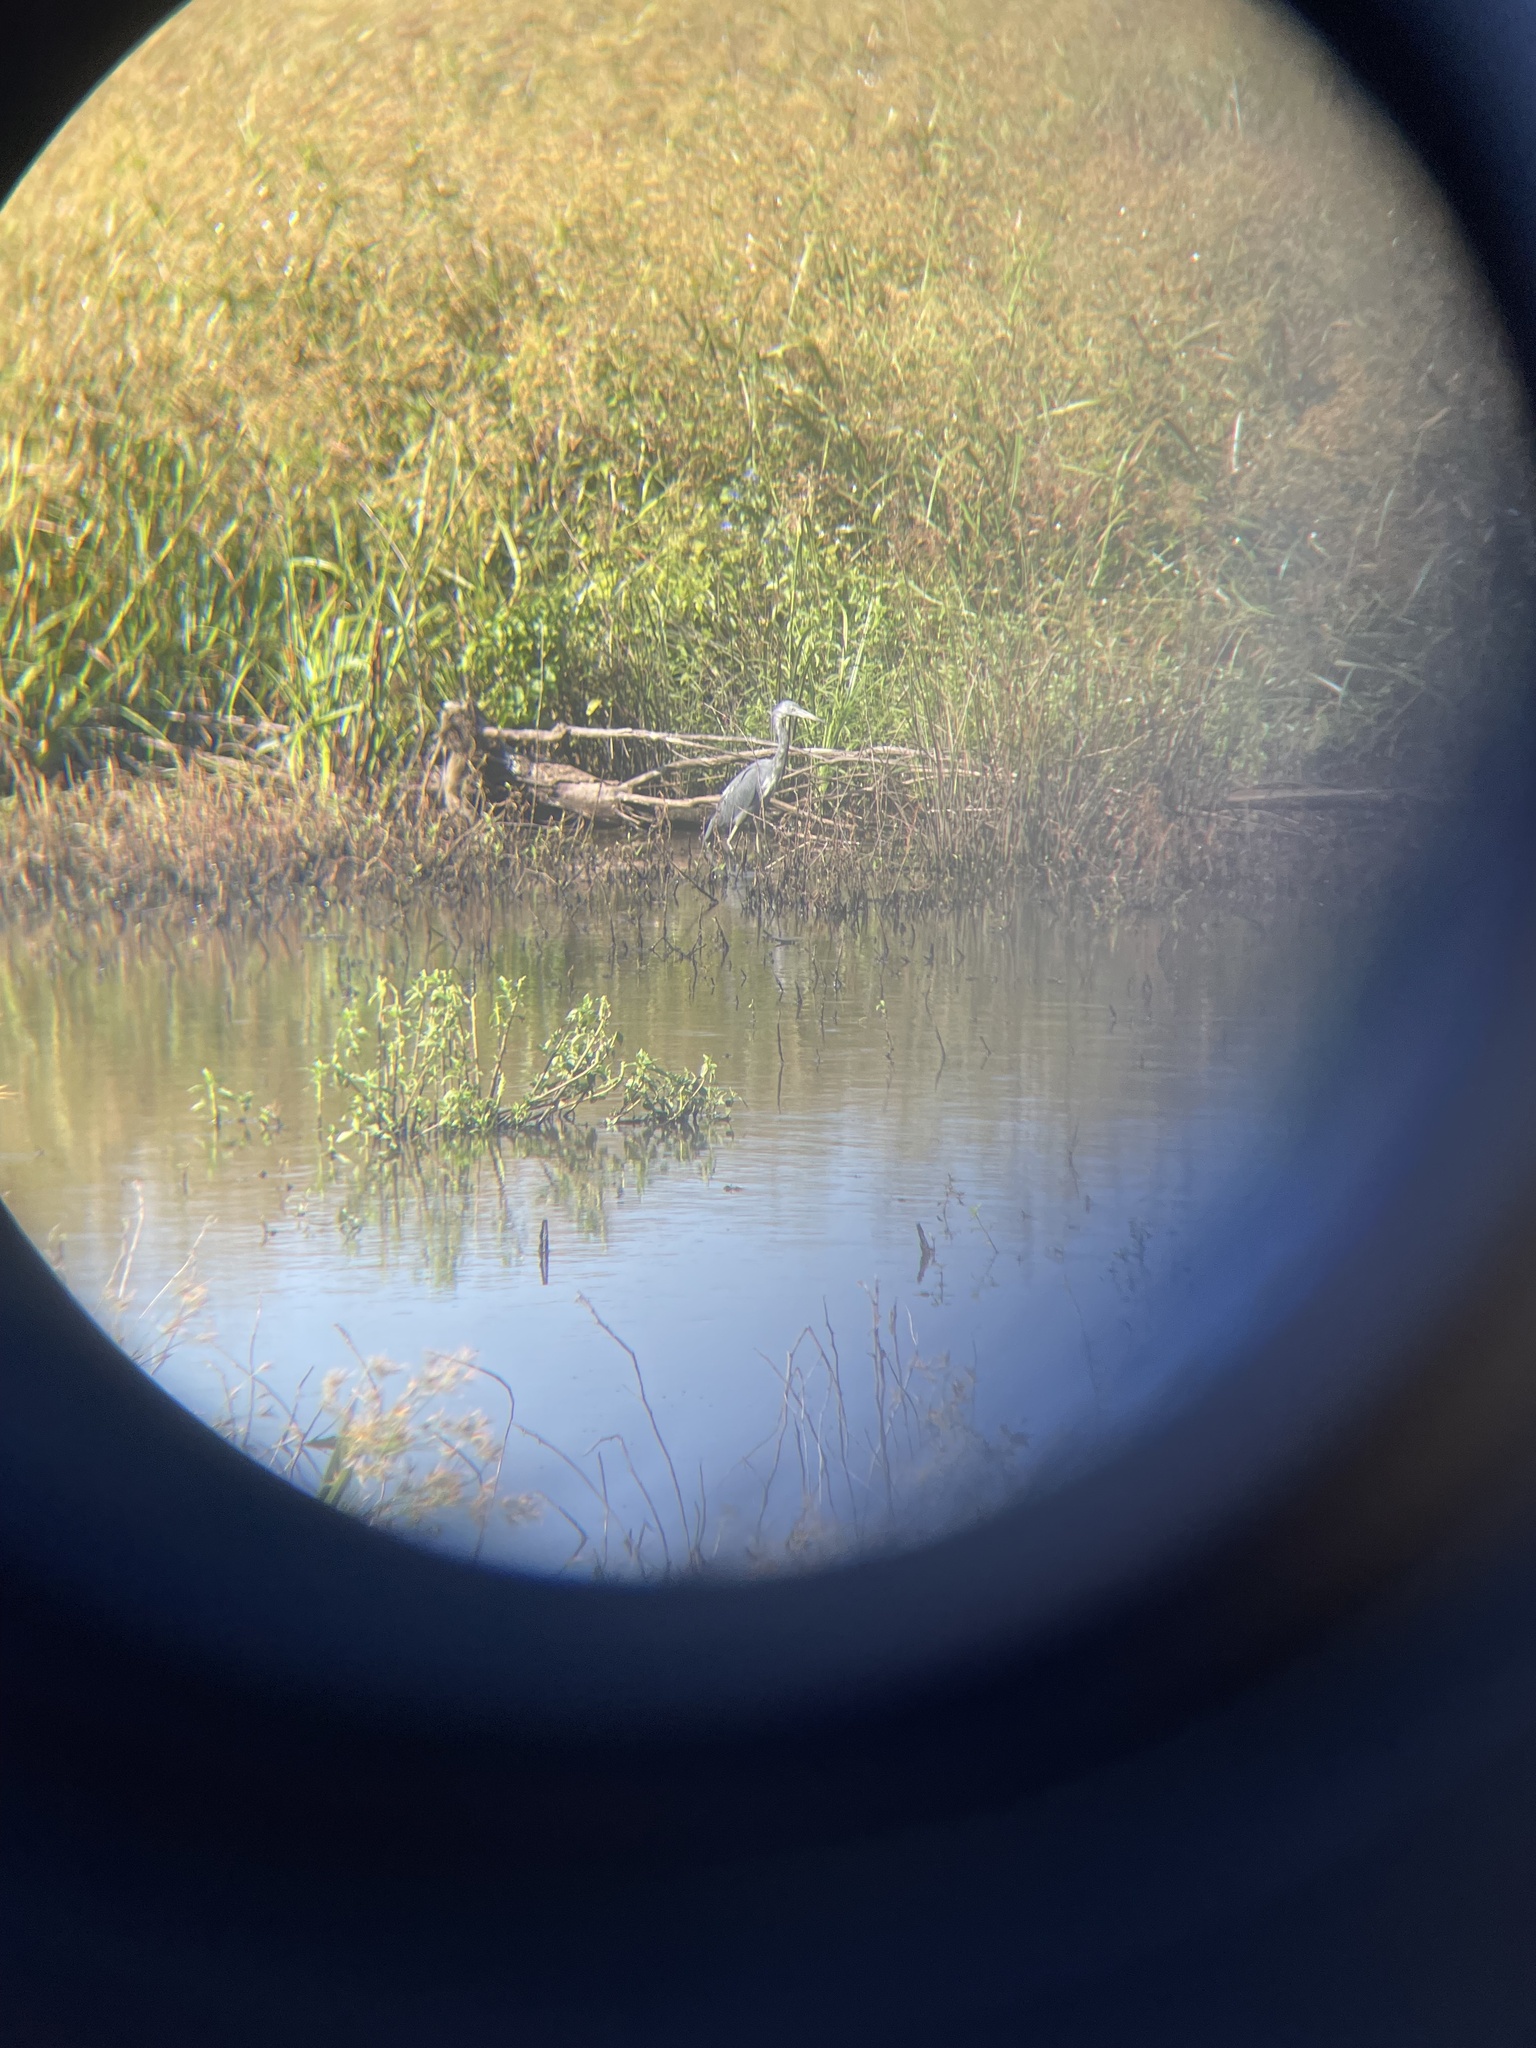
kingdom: Animalia
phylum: Chordata
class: Aves
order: Pelecaniformes
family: Ardeidae
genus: Egretta
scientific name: Egretta caerulea
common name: Little blue heron
